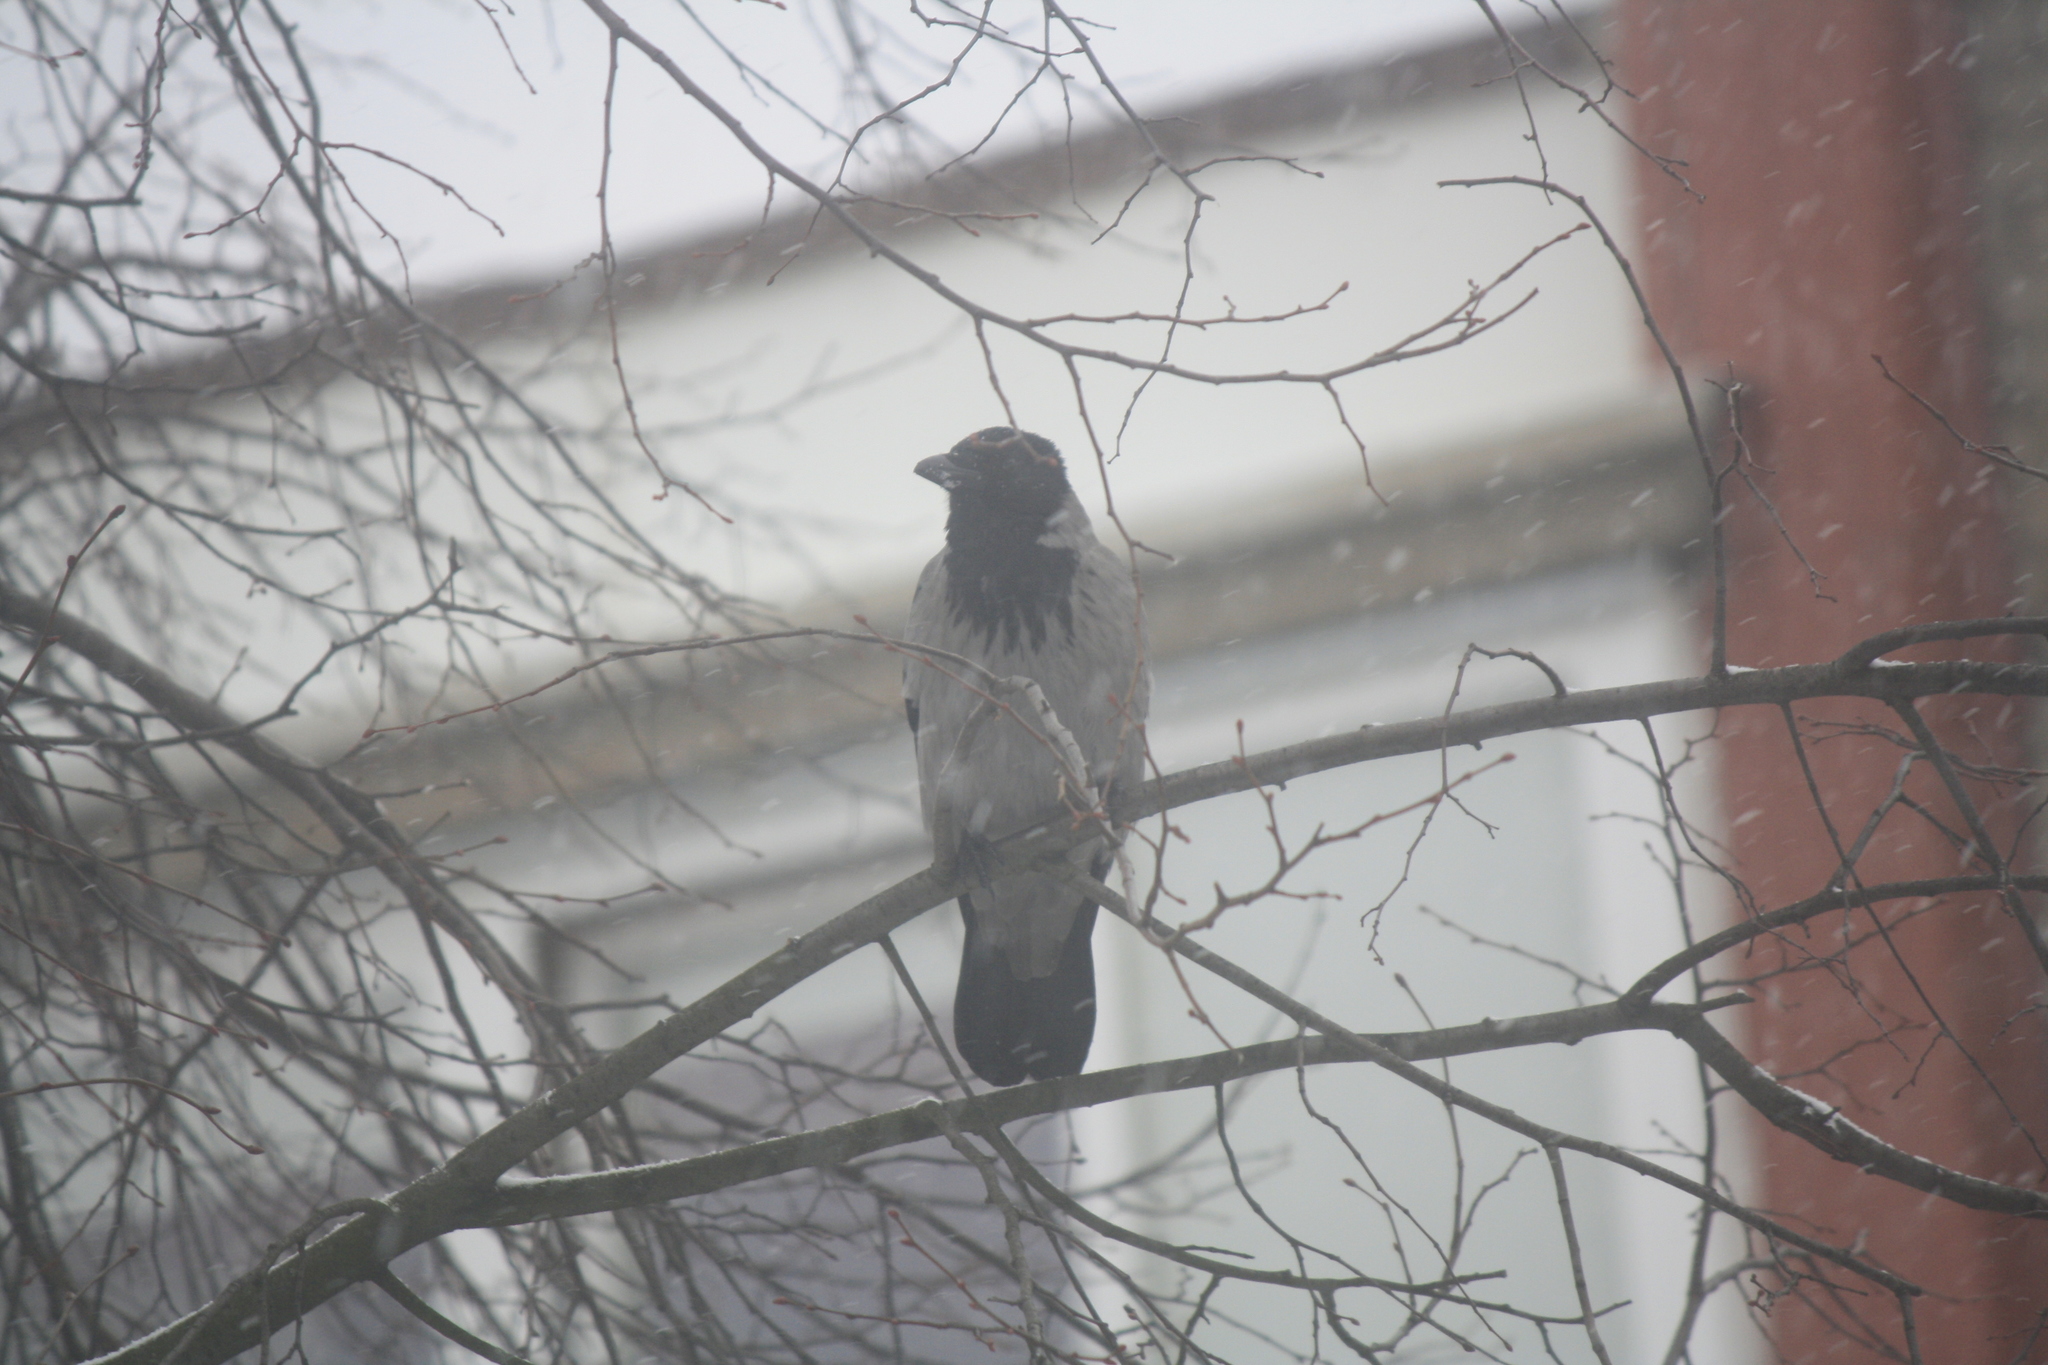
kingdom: Animalia
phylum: Chordata
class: Aves
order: Passeriformes
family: Corvidae
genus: Corvus
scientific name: Corvus cornix
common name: Hooded crow
